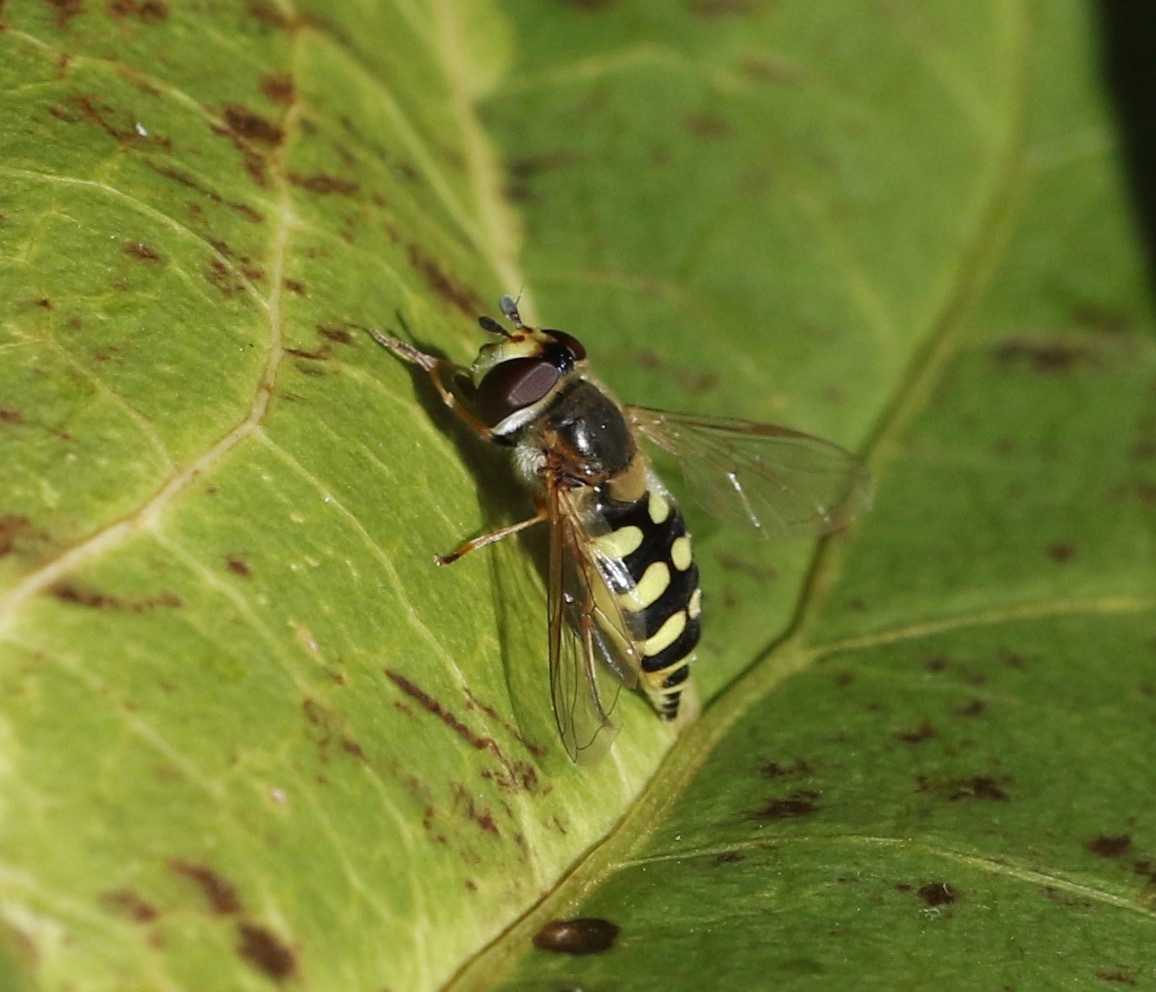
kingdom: Animalia
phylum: Arthropoda
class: Insecta
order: Diptera
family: Syrphidae
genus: Eupeodes
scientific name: Eupeodes corollae
